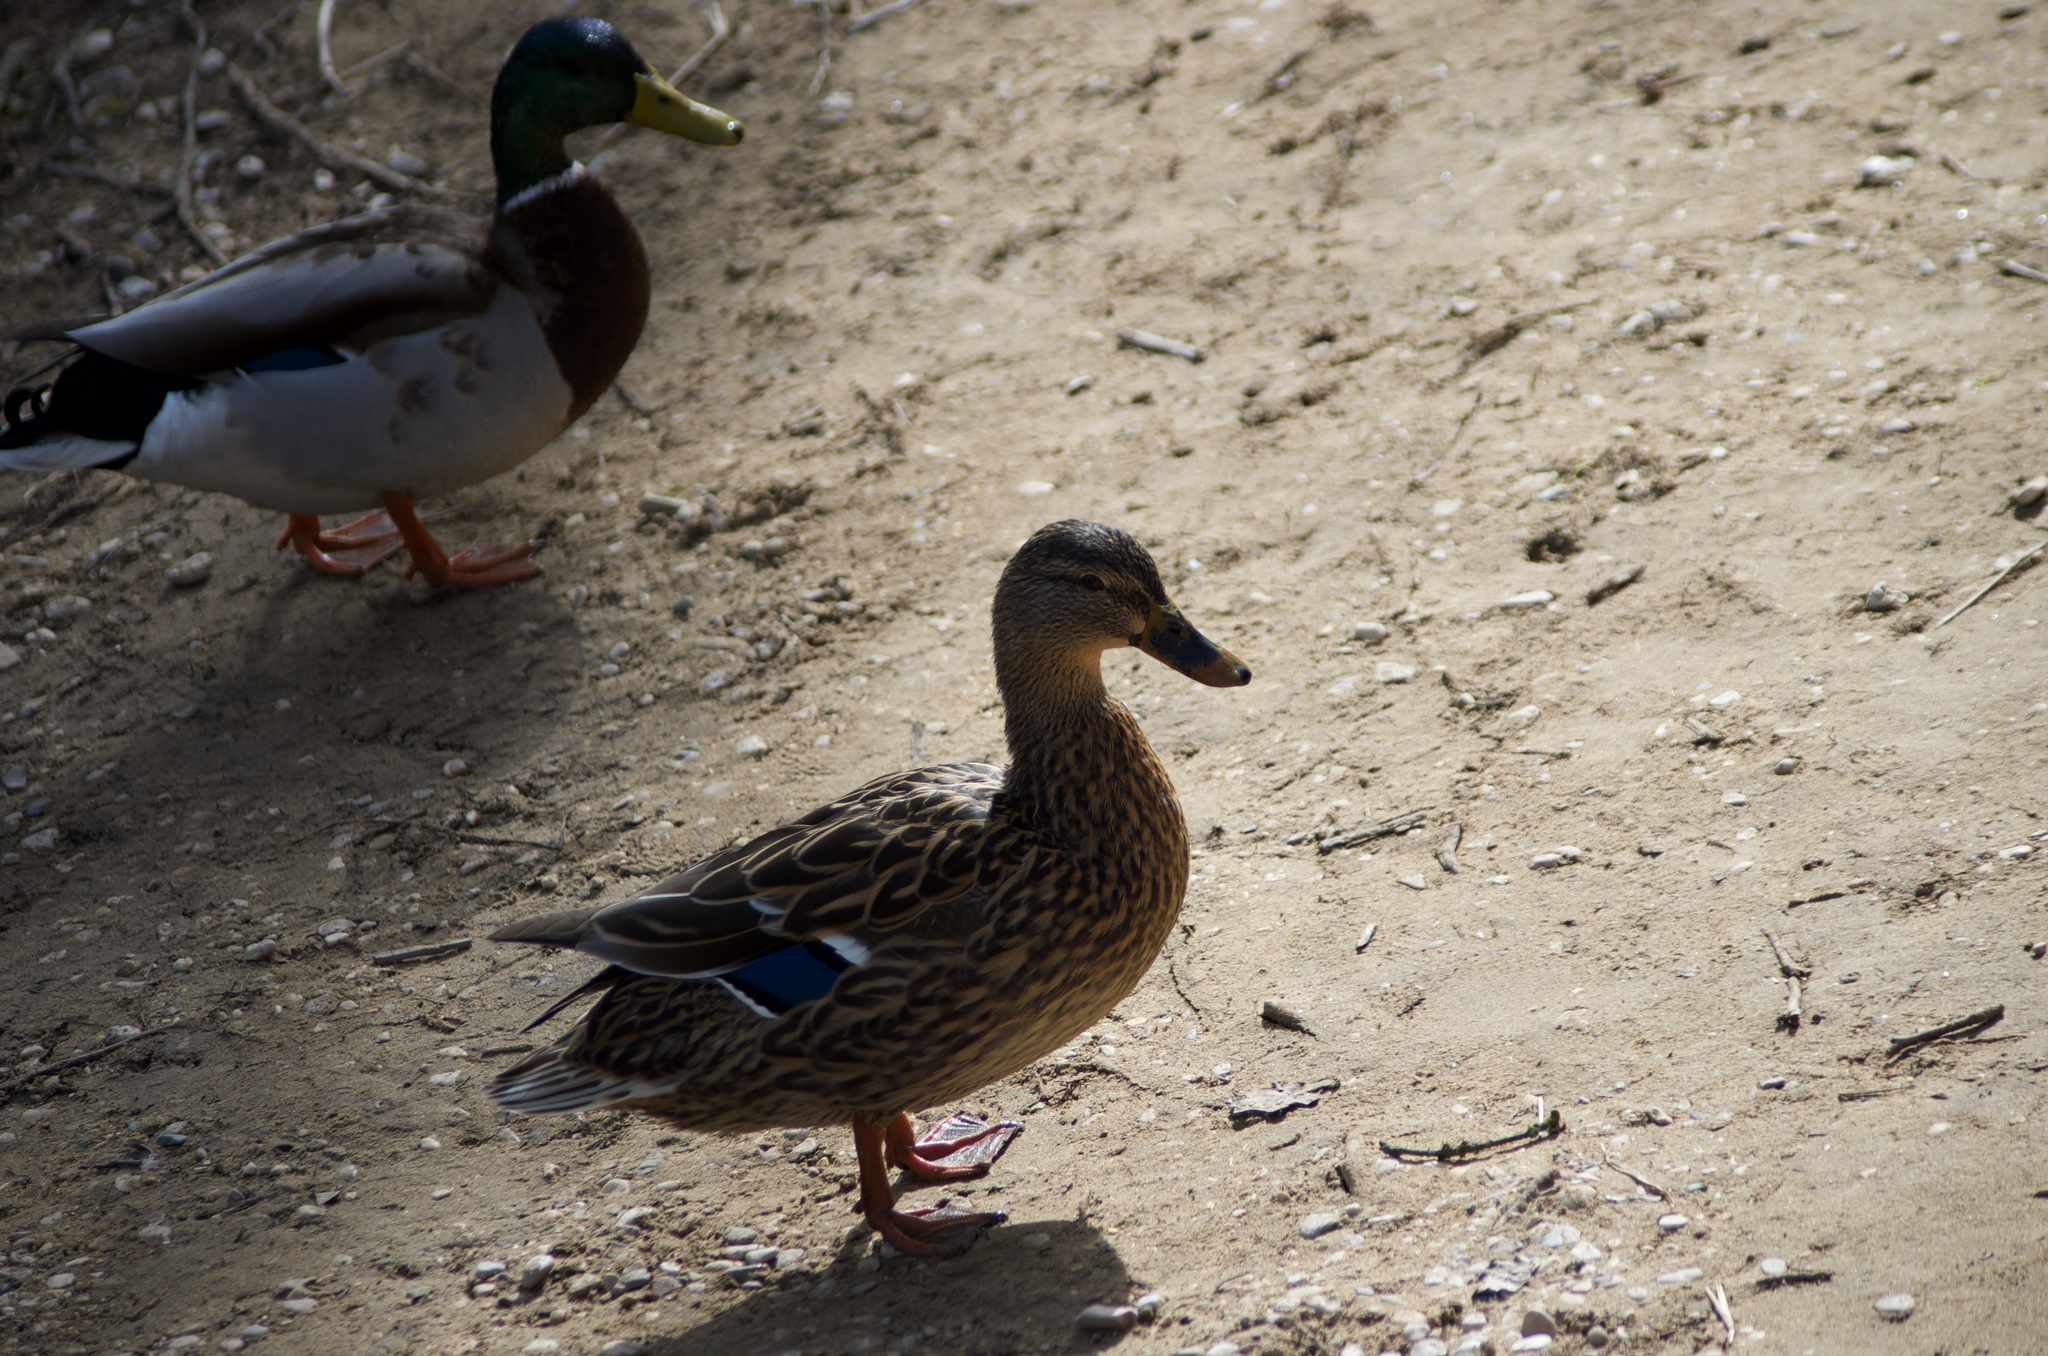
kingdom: Animalia
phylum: Chordata
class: Aves
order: Anseriformes
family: Anatidae
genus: Anas
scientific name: Anas platyrhynchos
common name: Mallard
